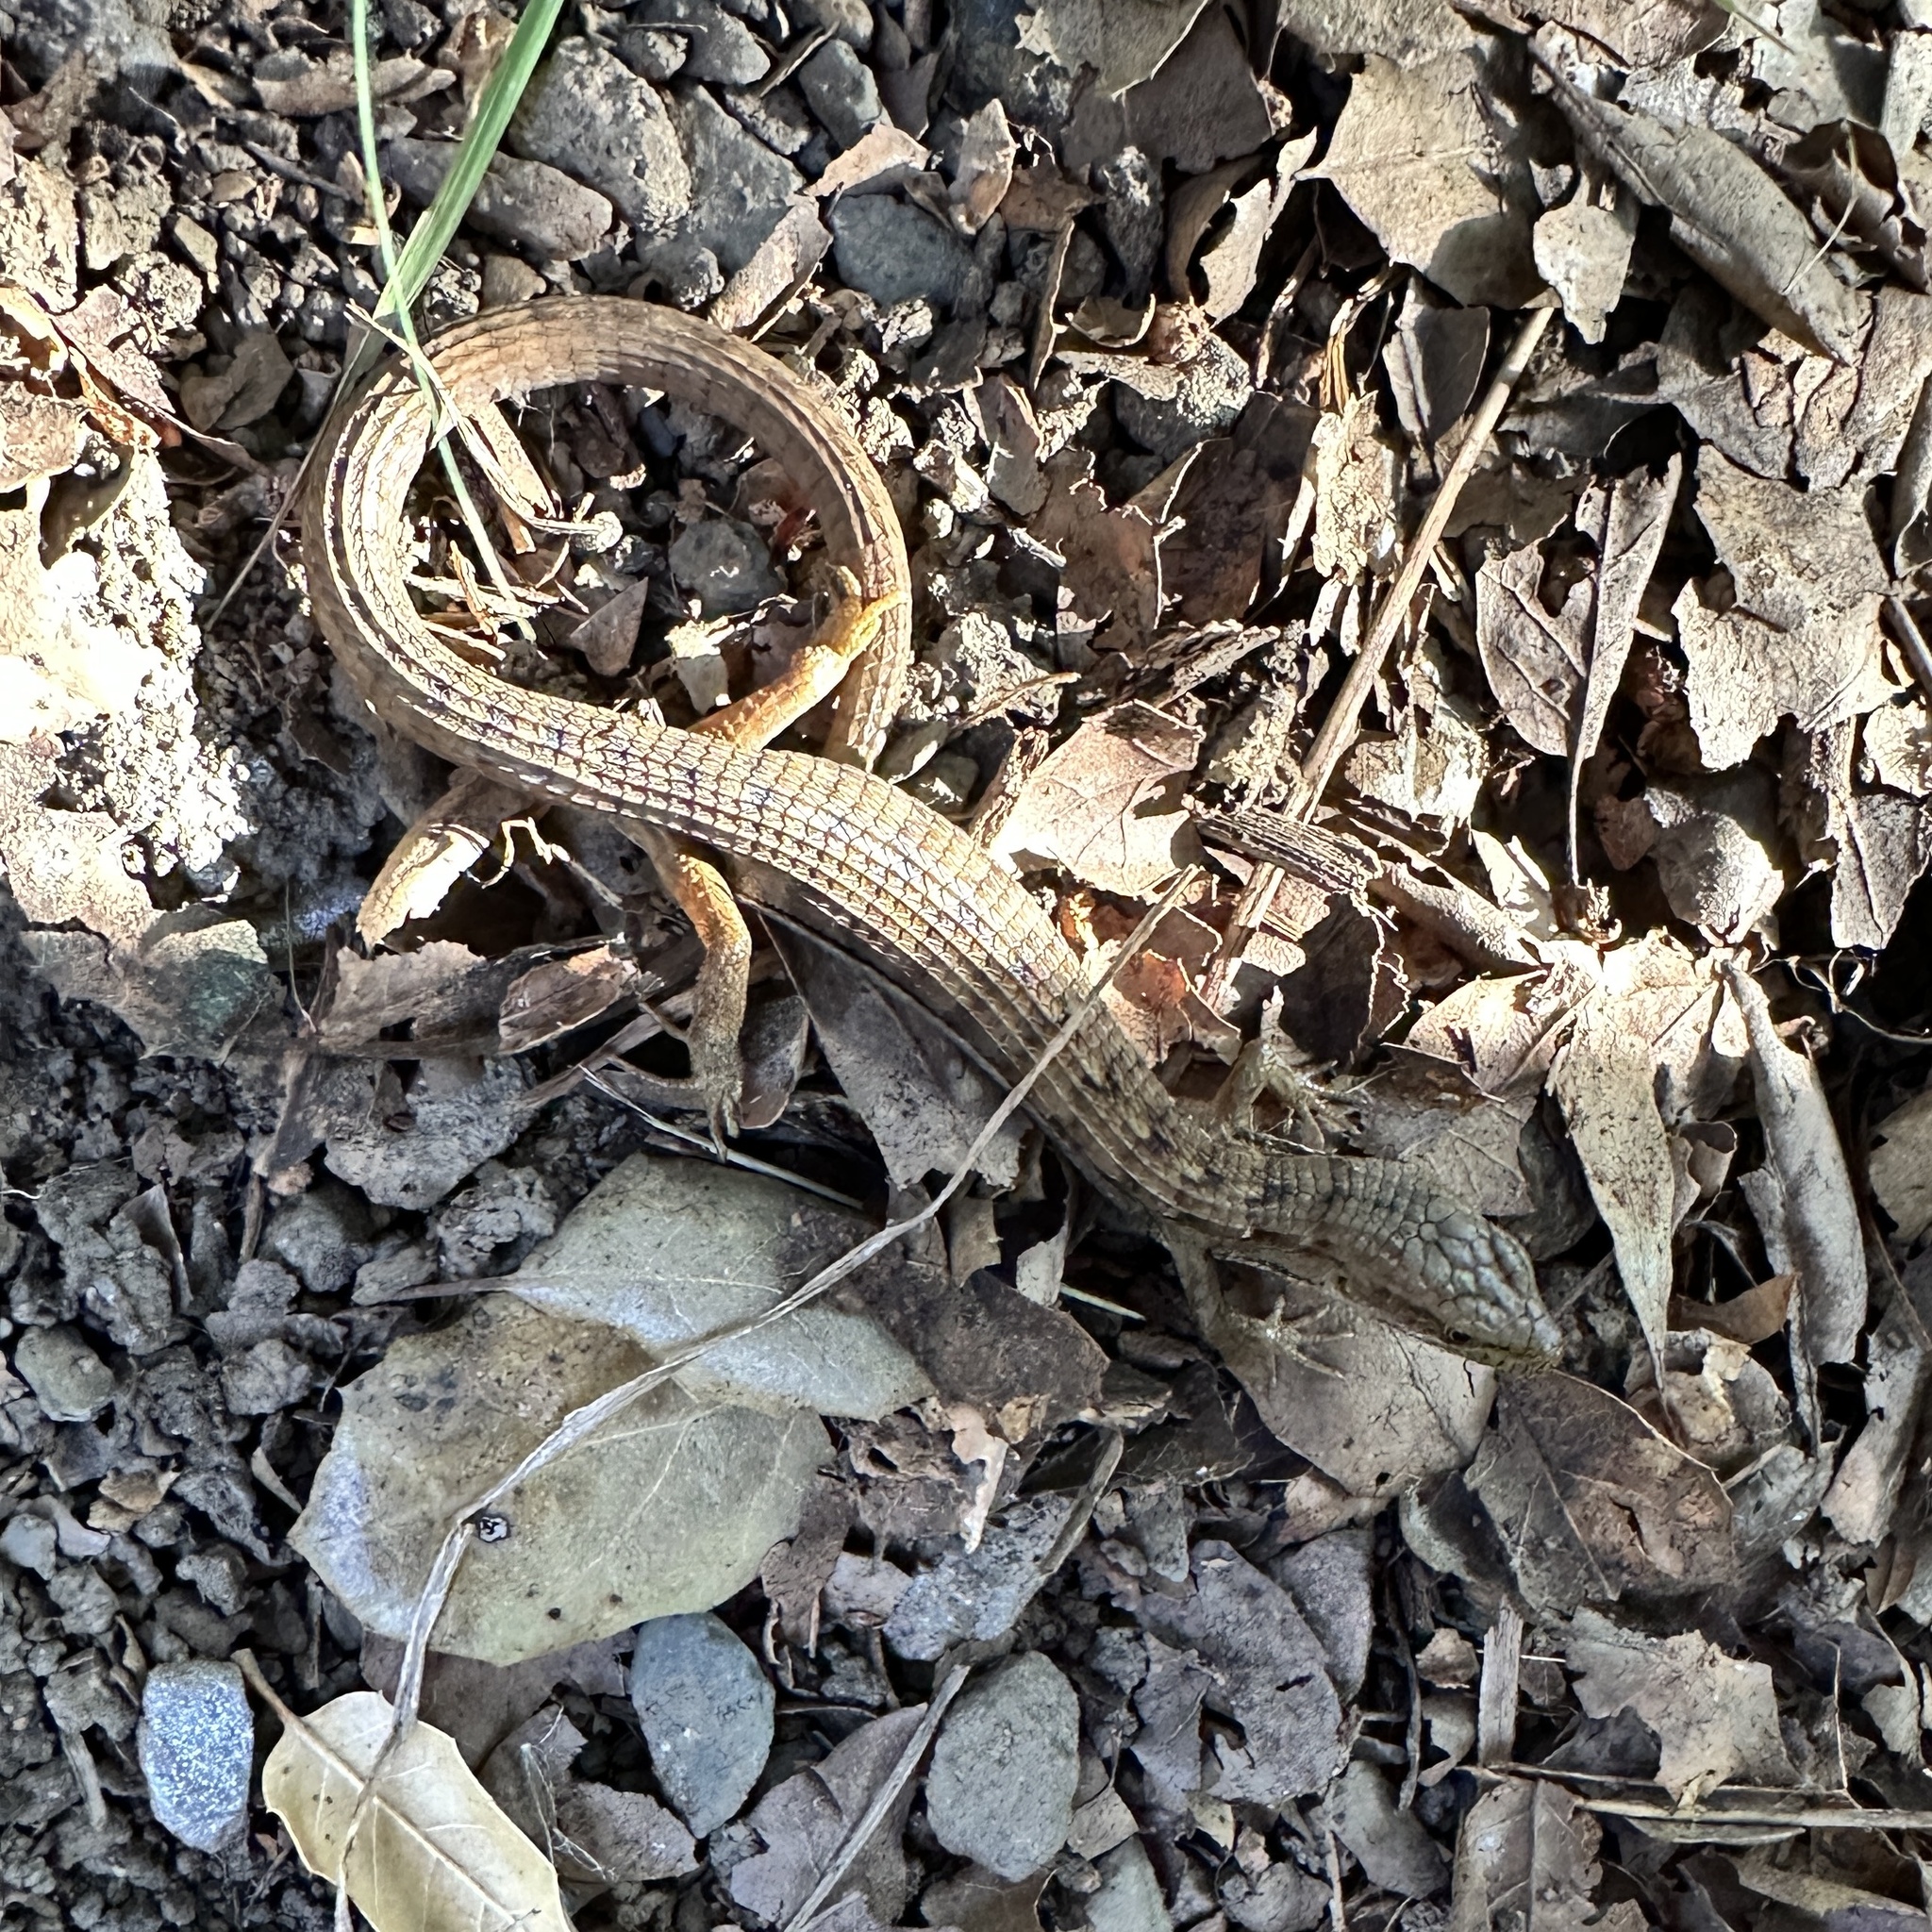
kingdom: Animalia
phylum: Chordata
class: Squamata
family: Anguidae
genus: Elgaria
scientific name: Elgaria multicarinata
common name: Southern alligator lizard
